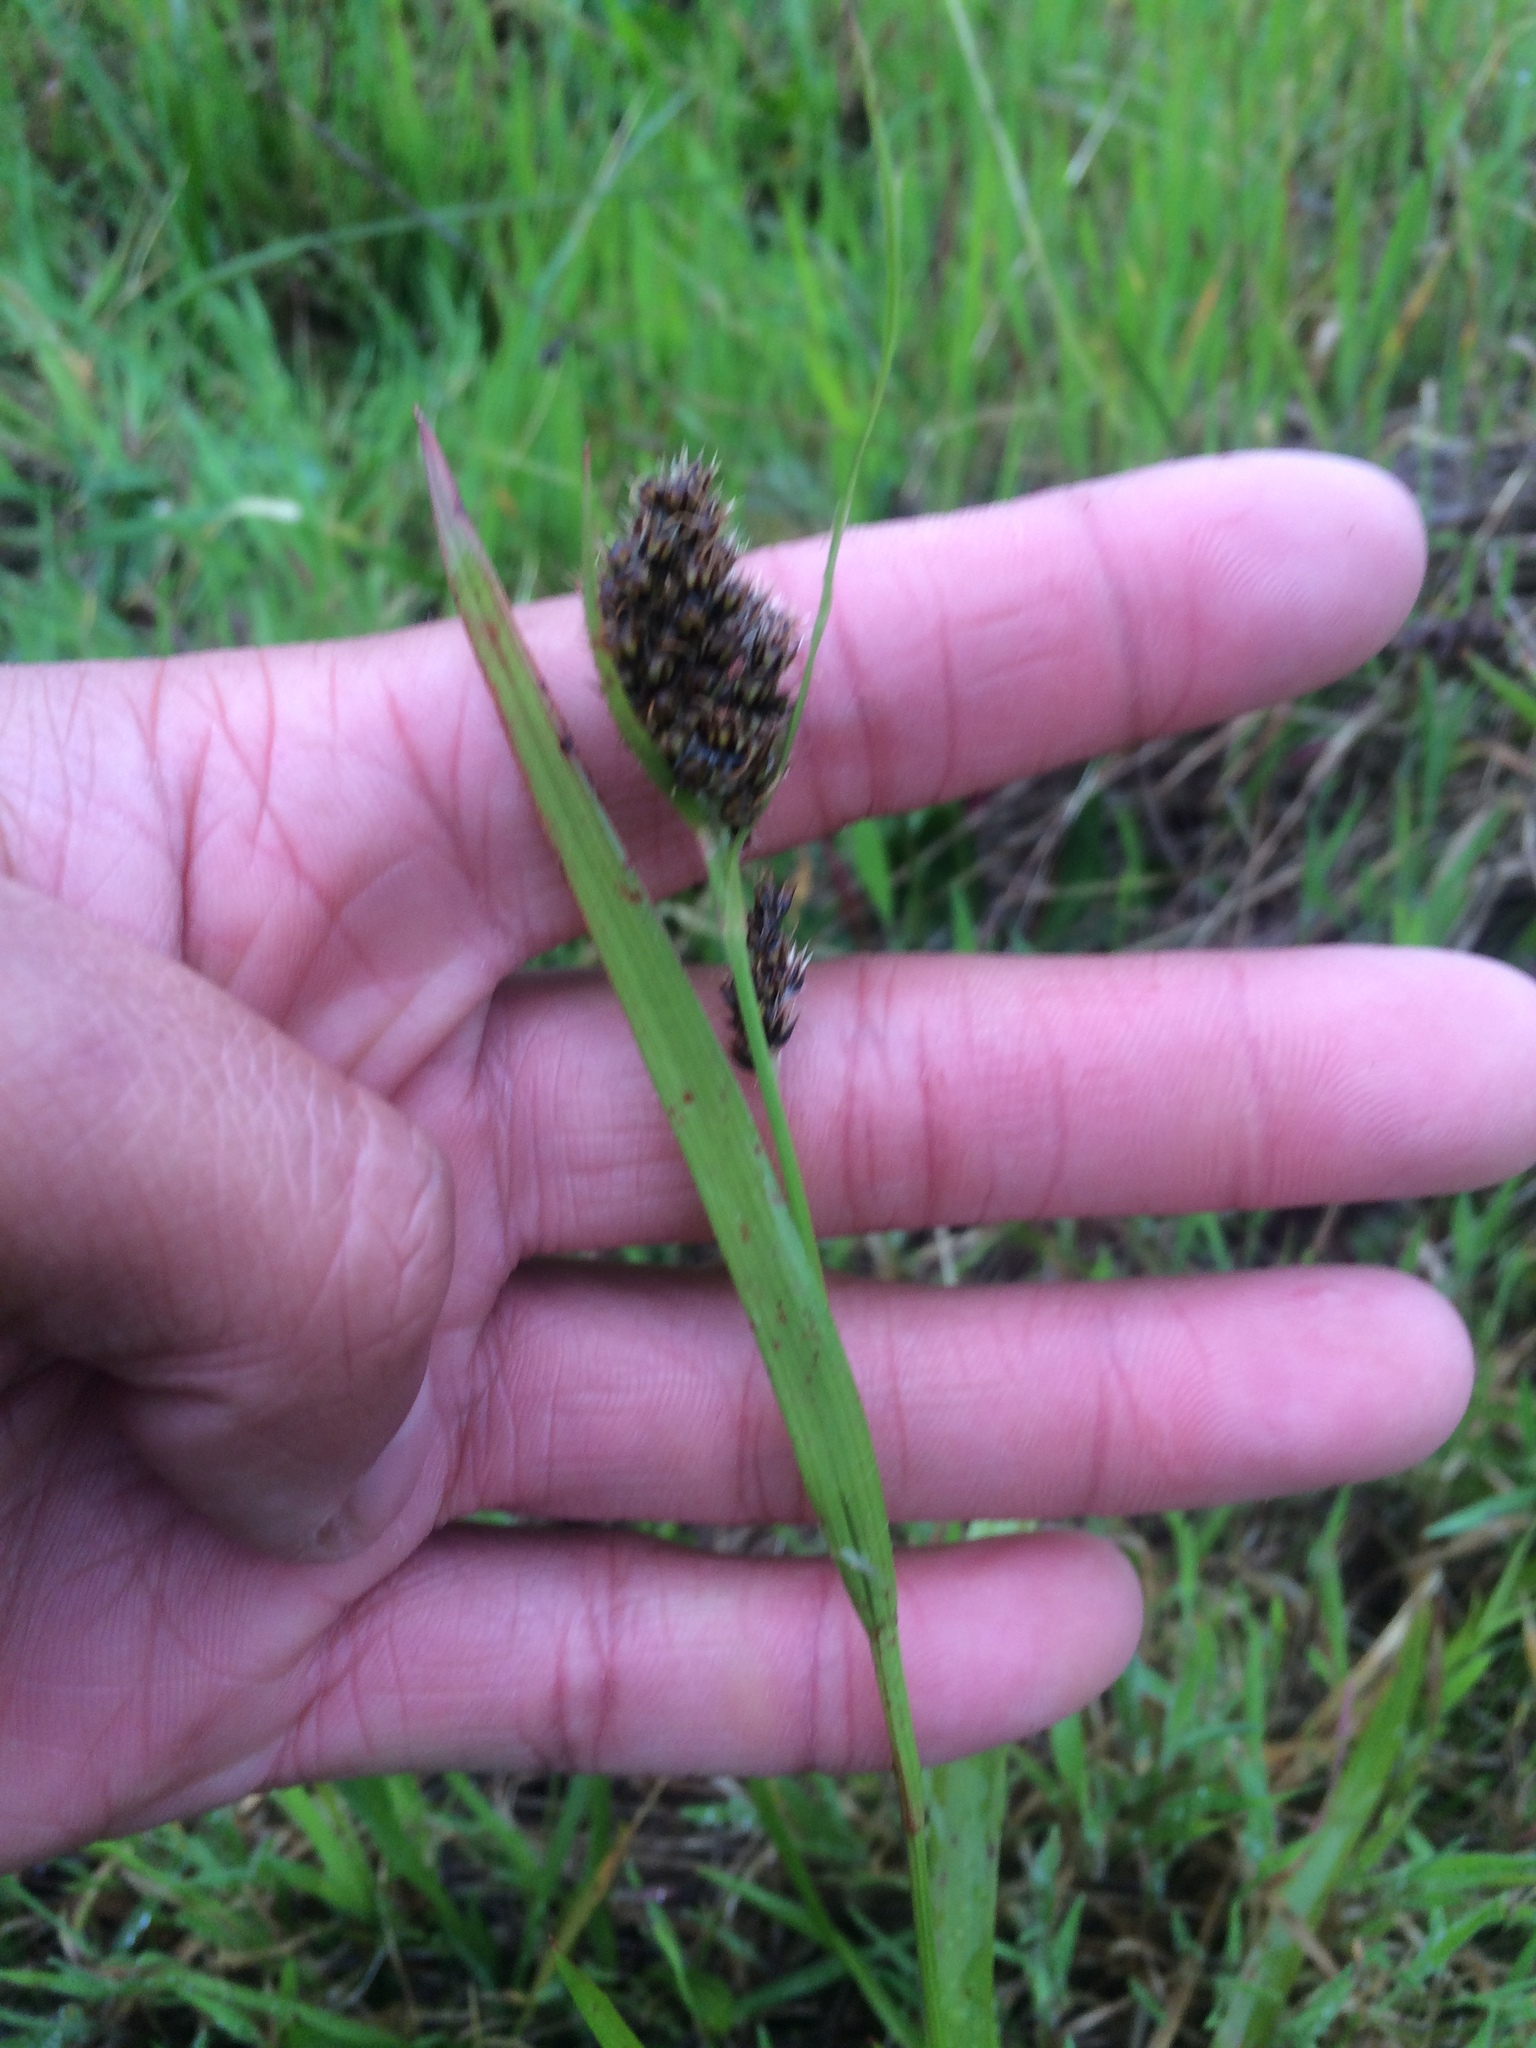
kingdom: Plantae
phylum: Tracheophyta
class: Liliopsida
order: Poales
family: Juncaceae
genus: Luzula
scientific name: Luzula macrantha
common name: Large-anthered woodrush
